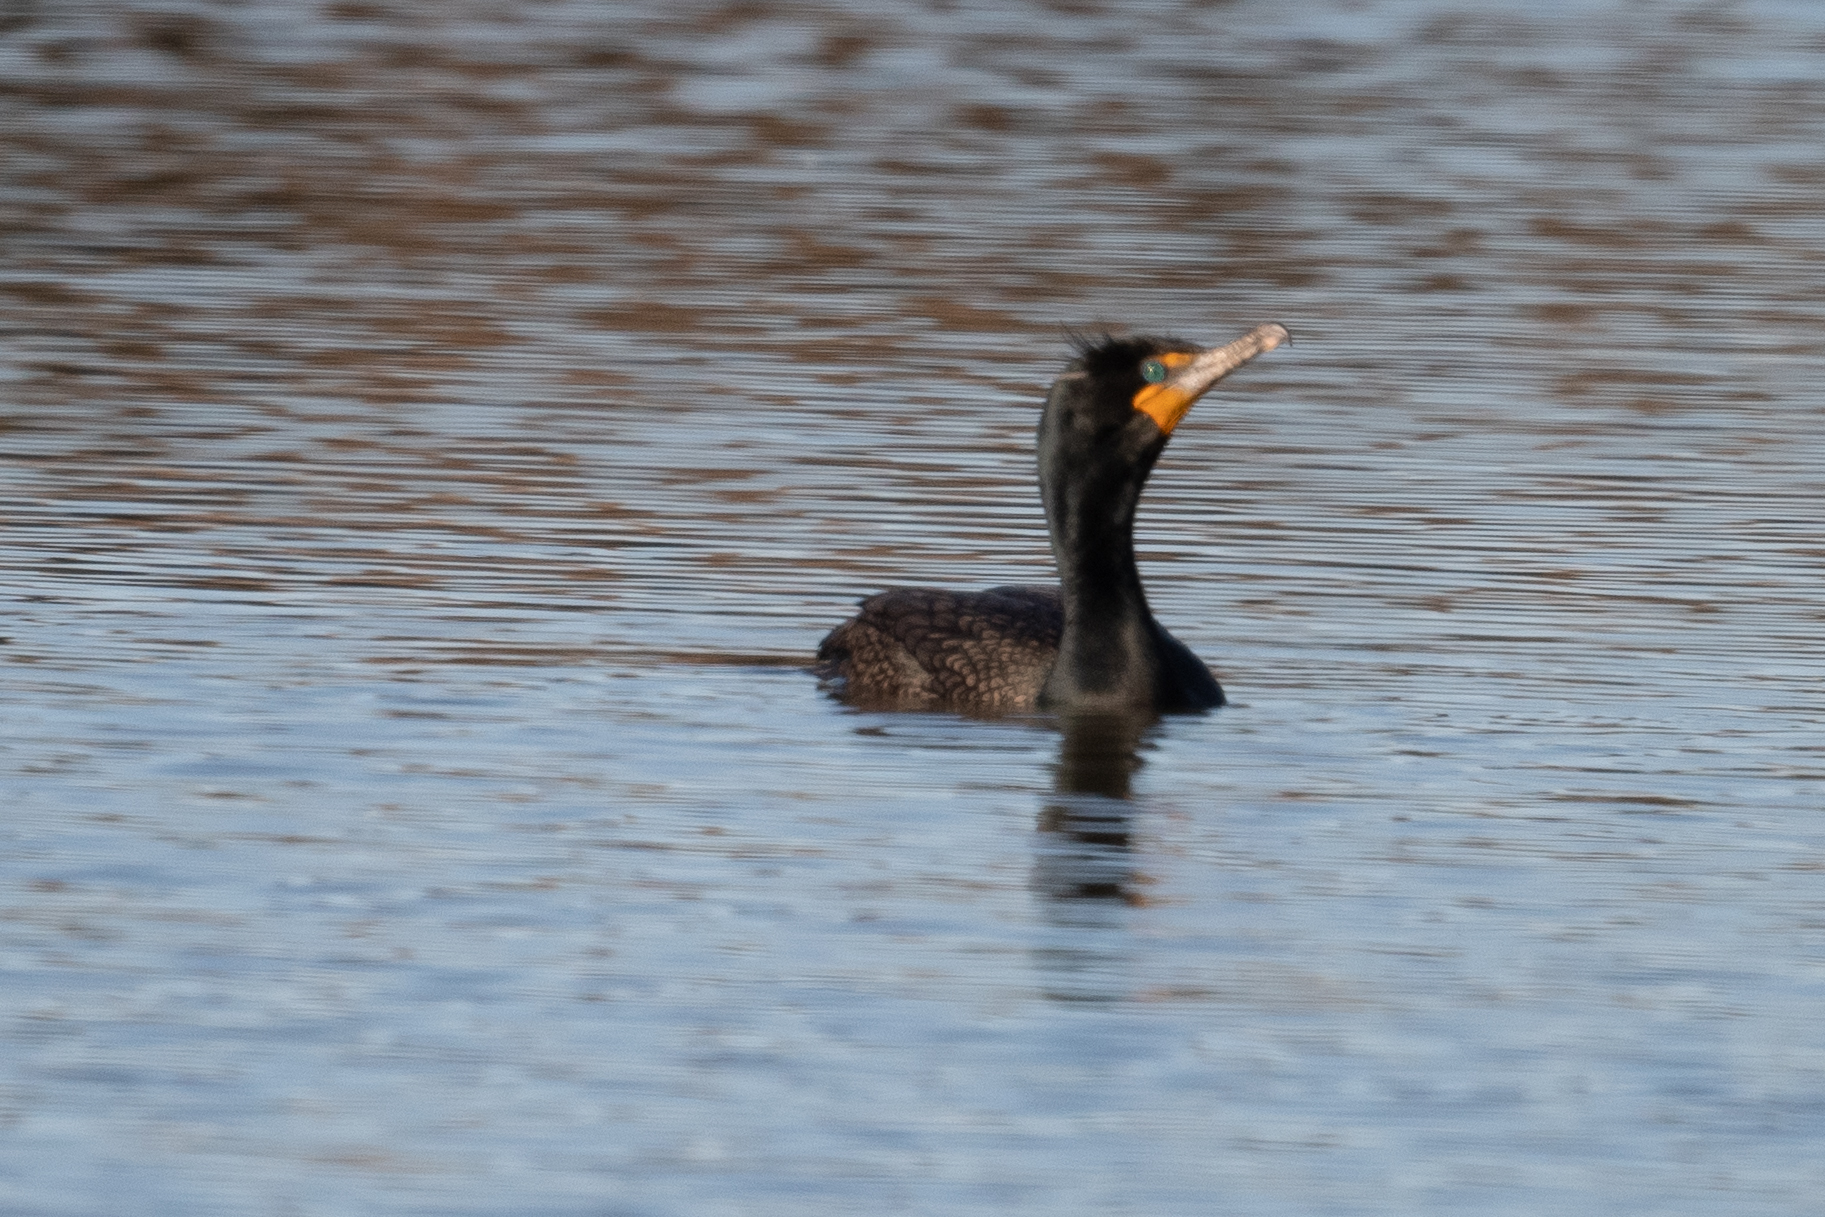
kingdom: Animalia
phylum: Chordata
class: Aves
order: Suliformes
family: Phalacrocoracidae
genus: Phalacrocorax
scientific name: Phalacrocorax auritus
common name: Double-crested cormorant
